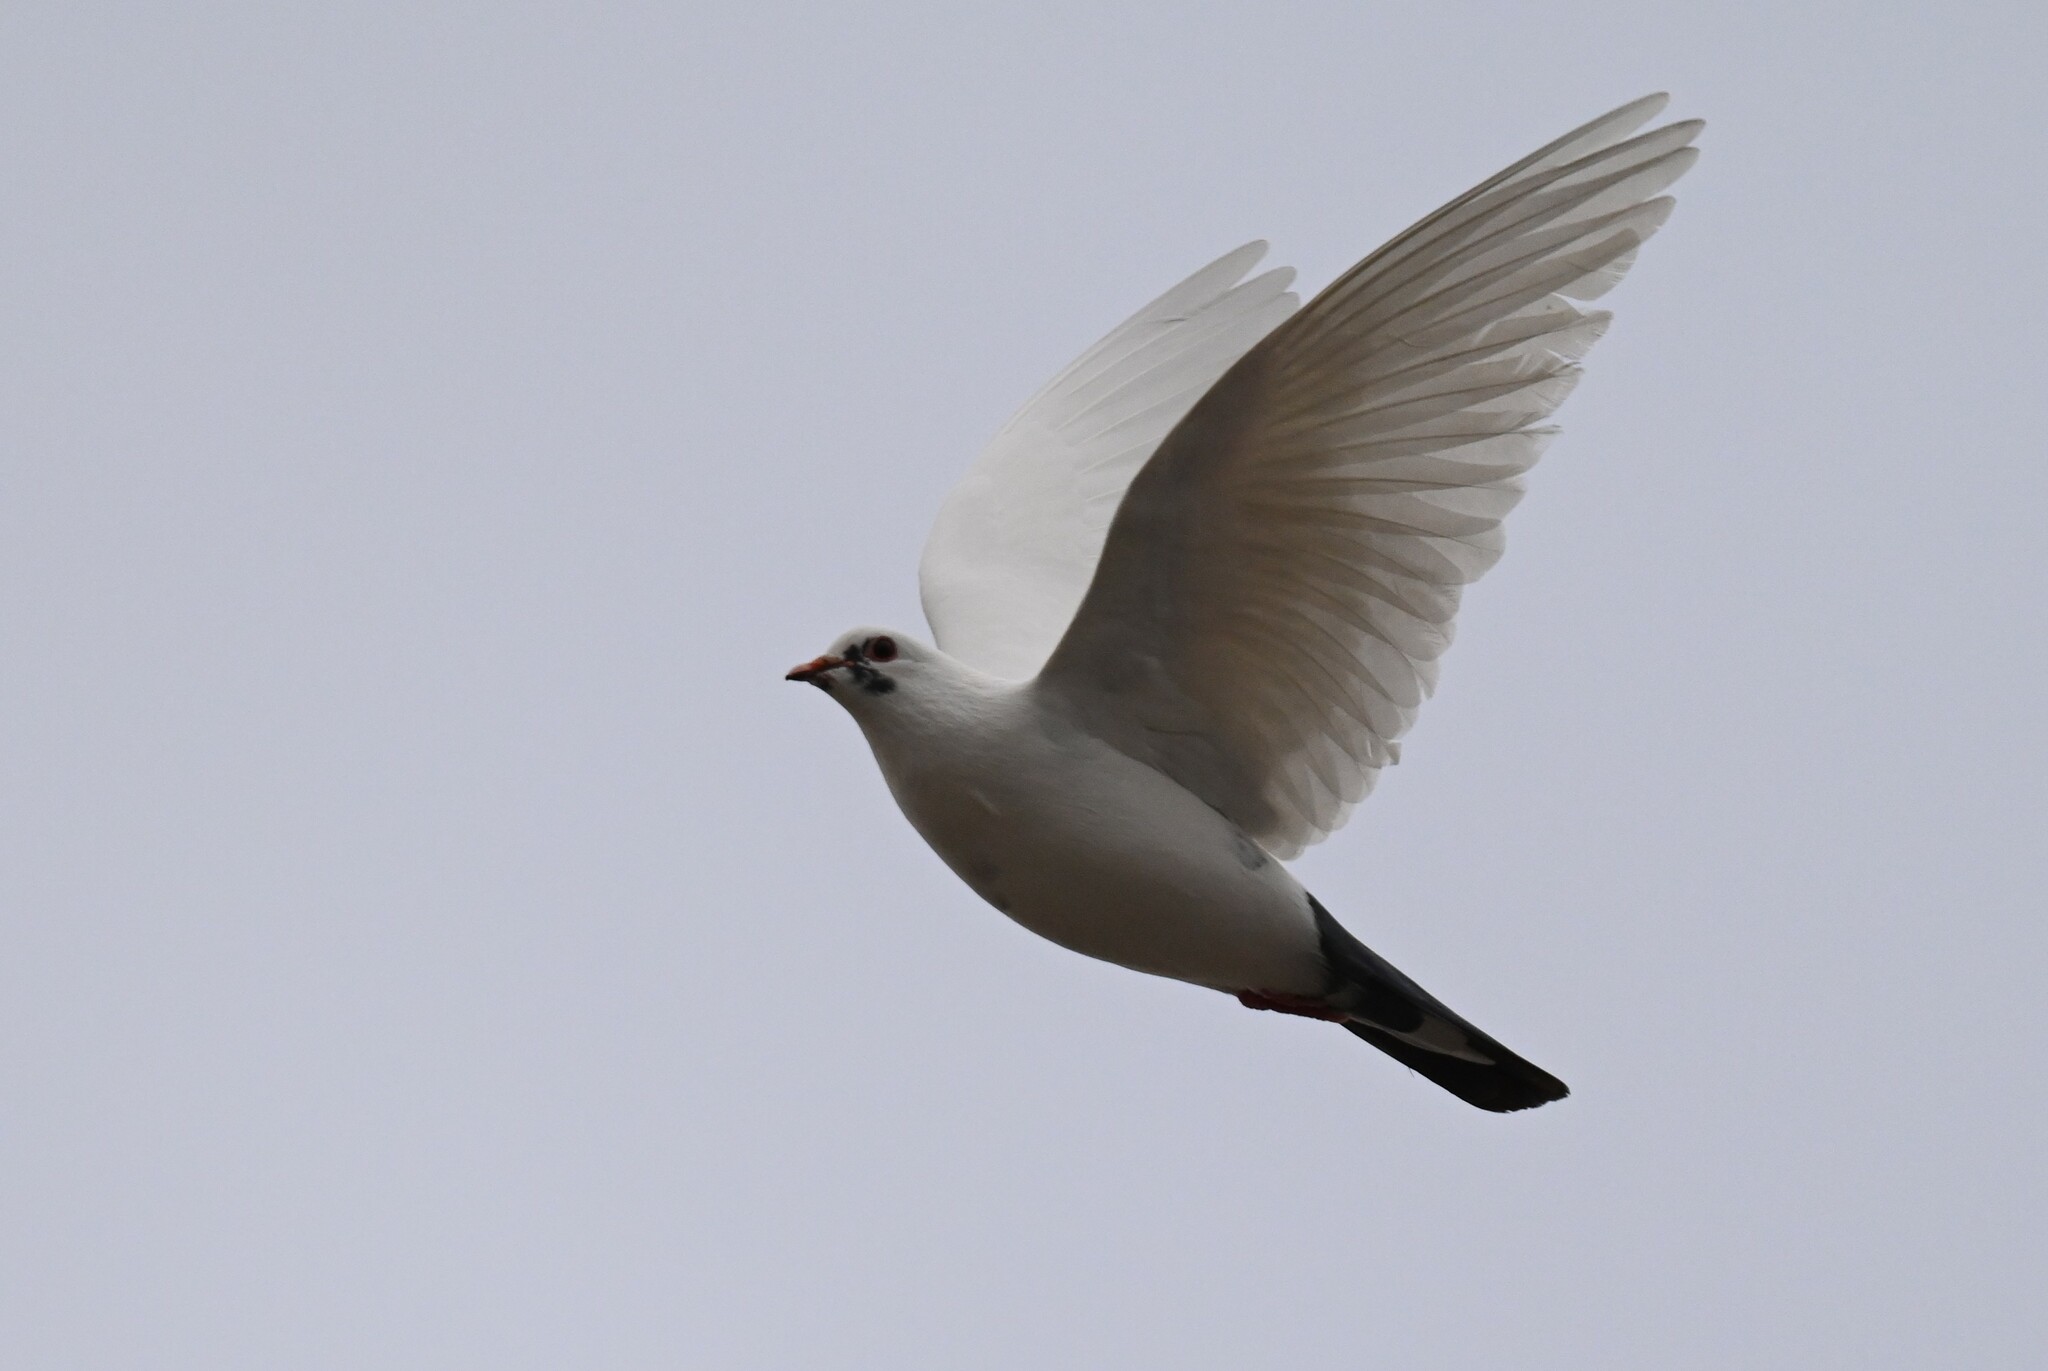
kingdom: Animalia
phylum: Chordata
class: Aves
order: Columbiformes
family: Columbidae
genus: Columba
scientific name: Columba livia
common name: Rock pigeon
